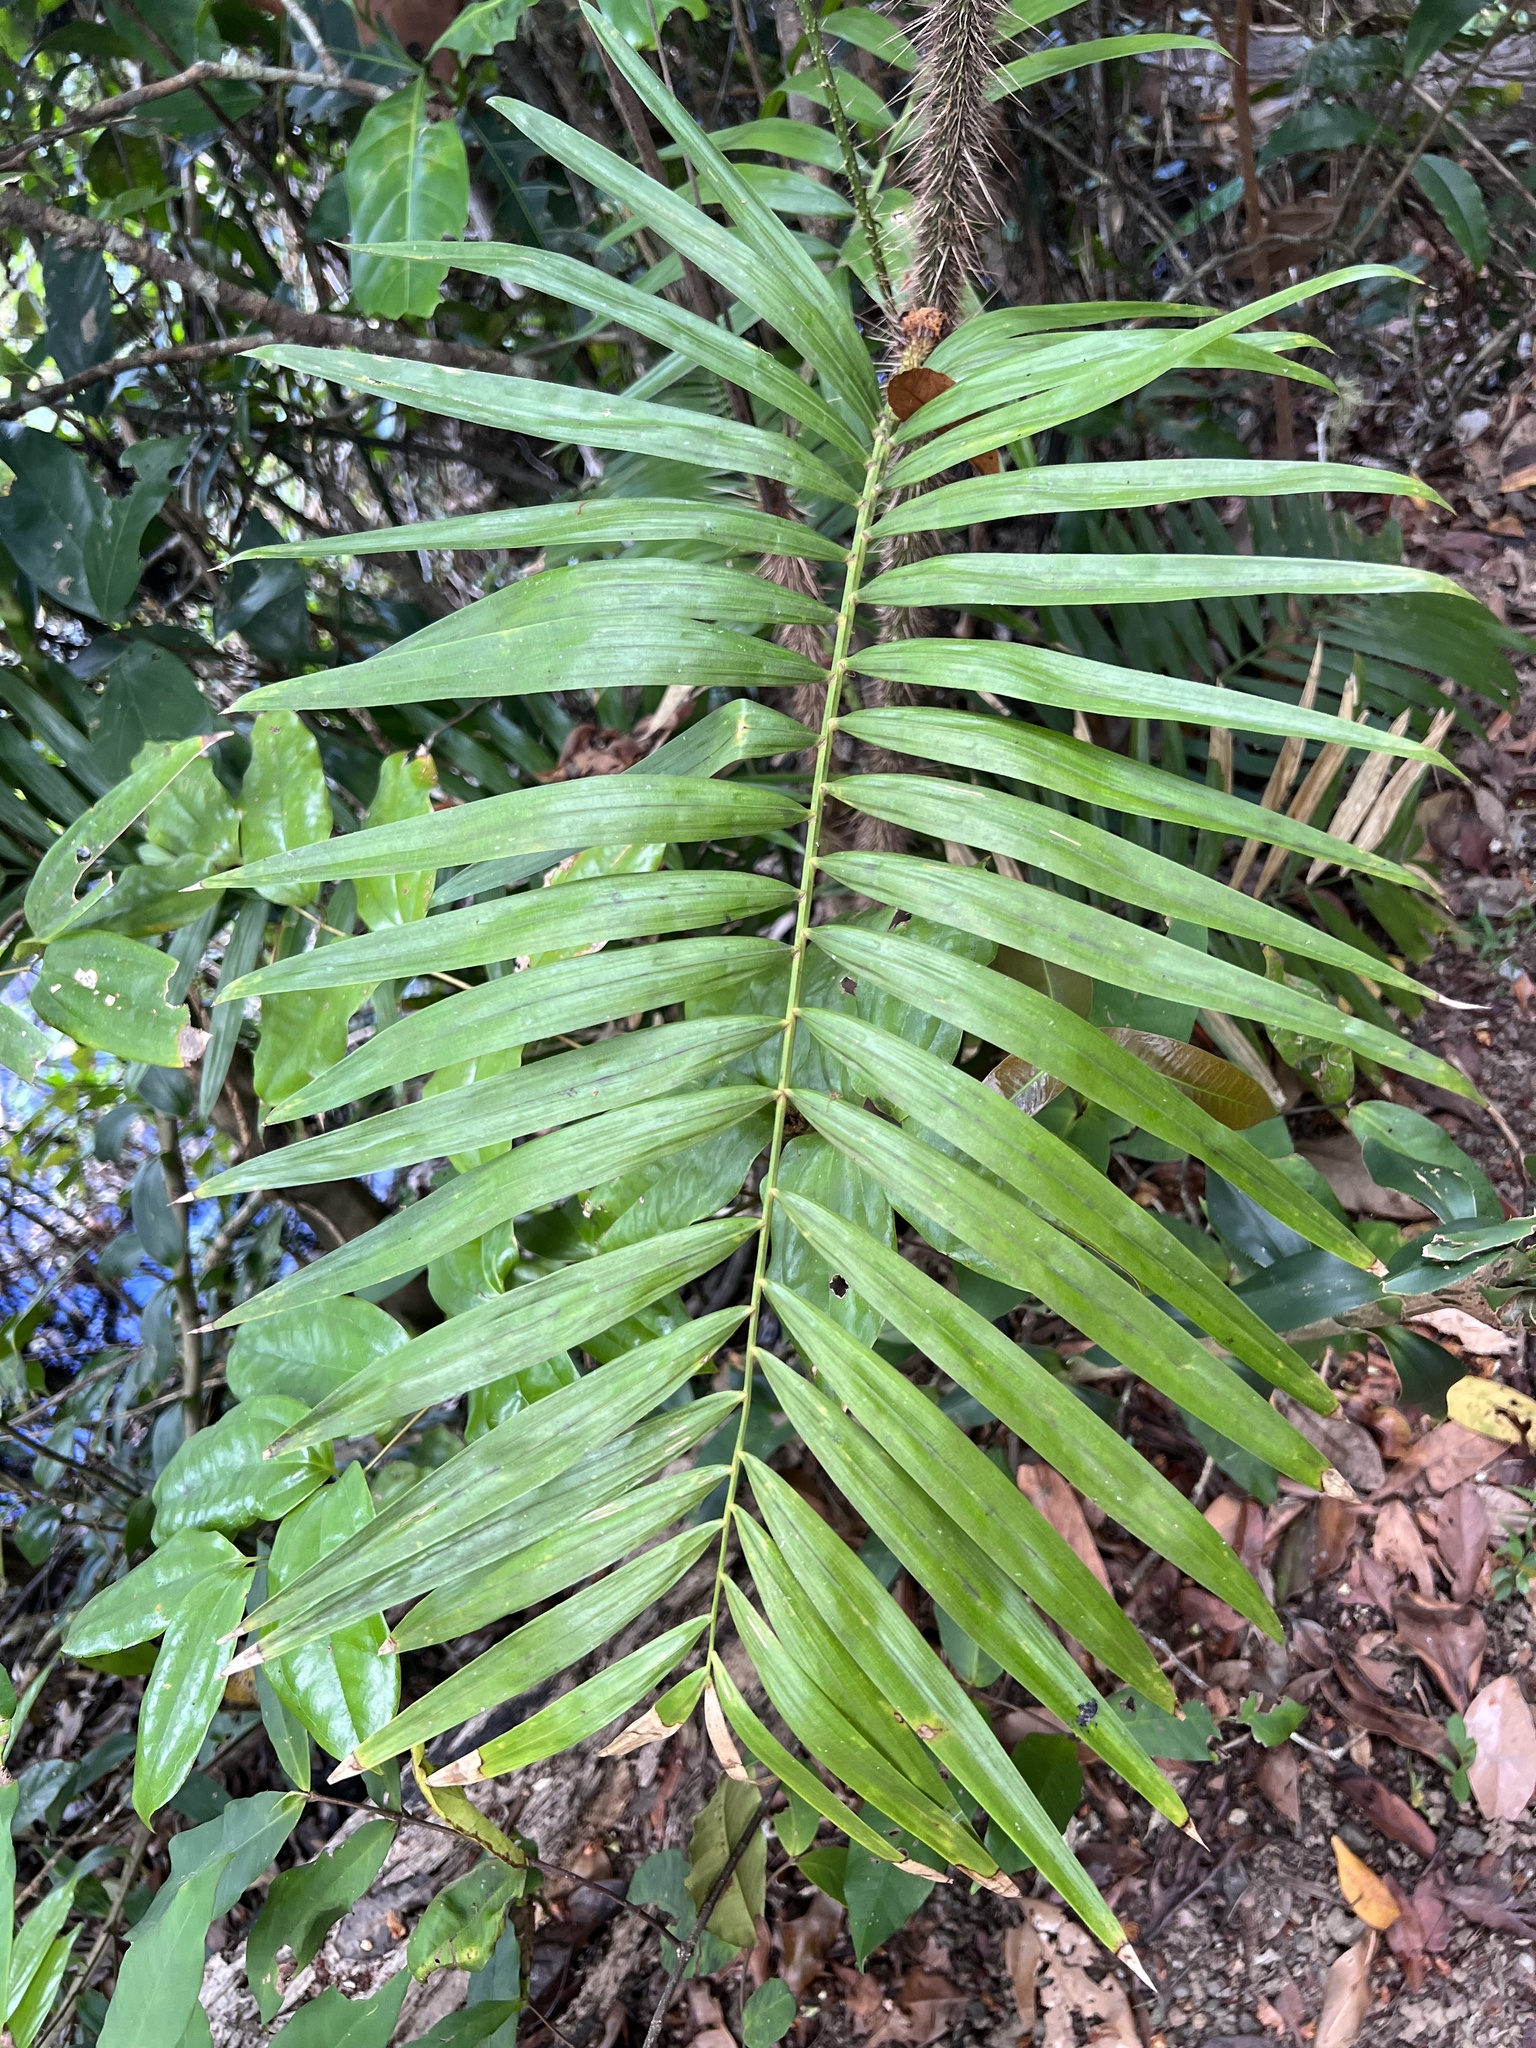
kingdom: Plantae
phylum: Tracheophyta
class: Liliopsida
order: Arecales
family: Arecaceae
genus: Calamus
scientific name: Calamus australis
